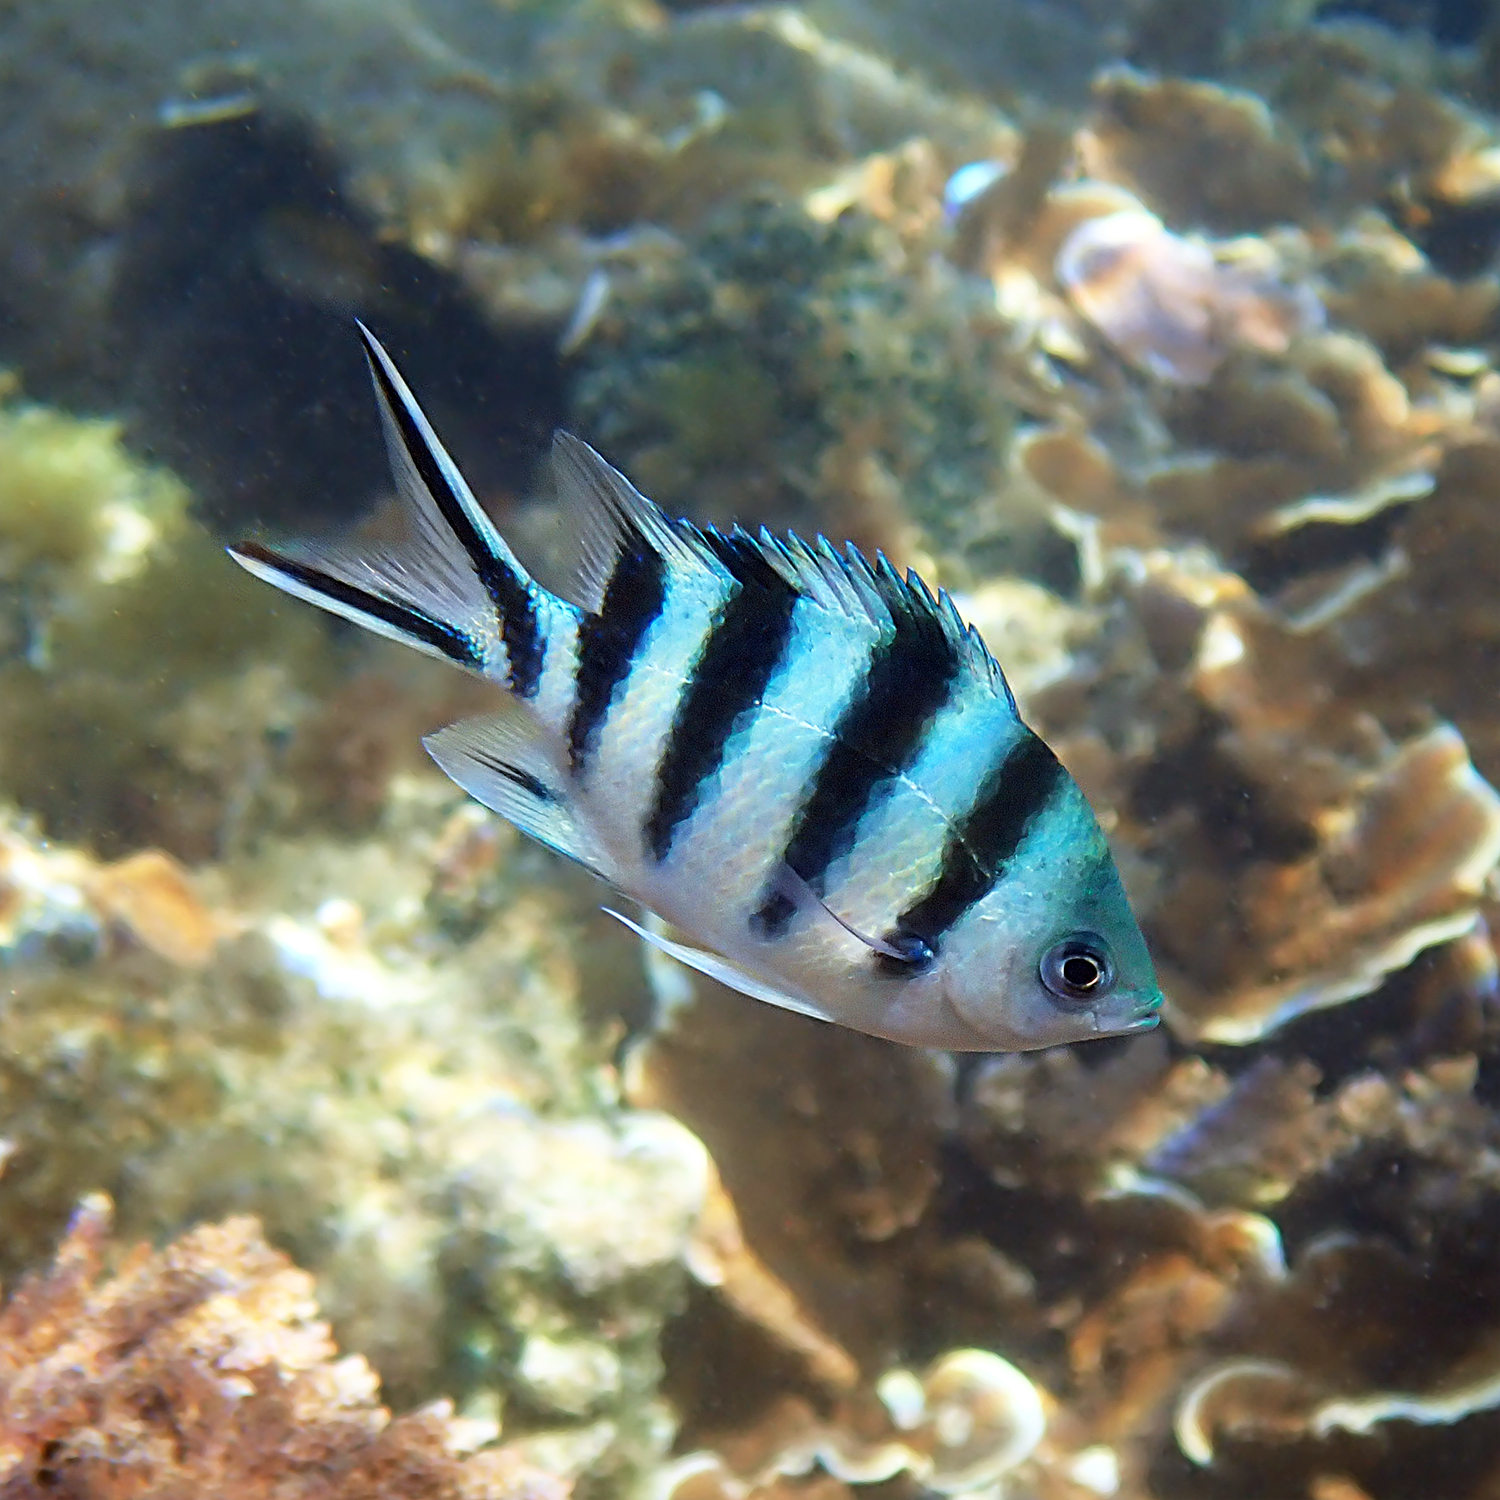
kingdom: Animalia
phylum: Chordata
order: Perciformes
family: Pomacentridae
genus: Abudefduf
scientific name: Abudefduf sexfasciatus
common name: Scissortail sergeant
